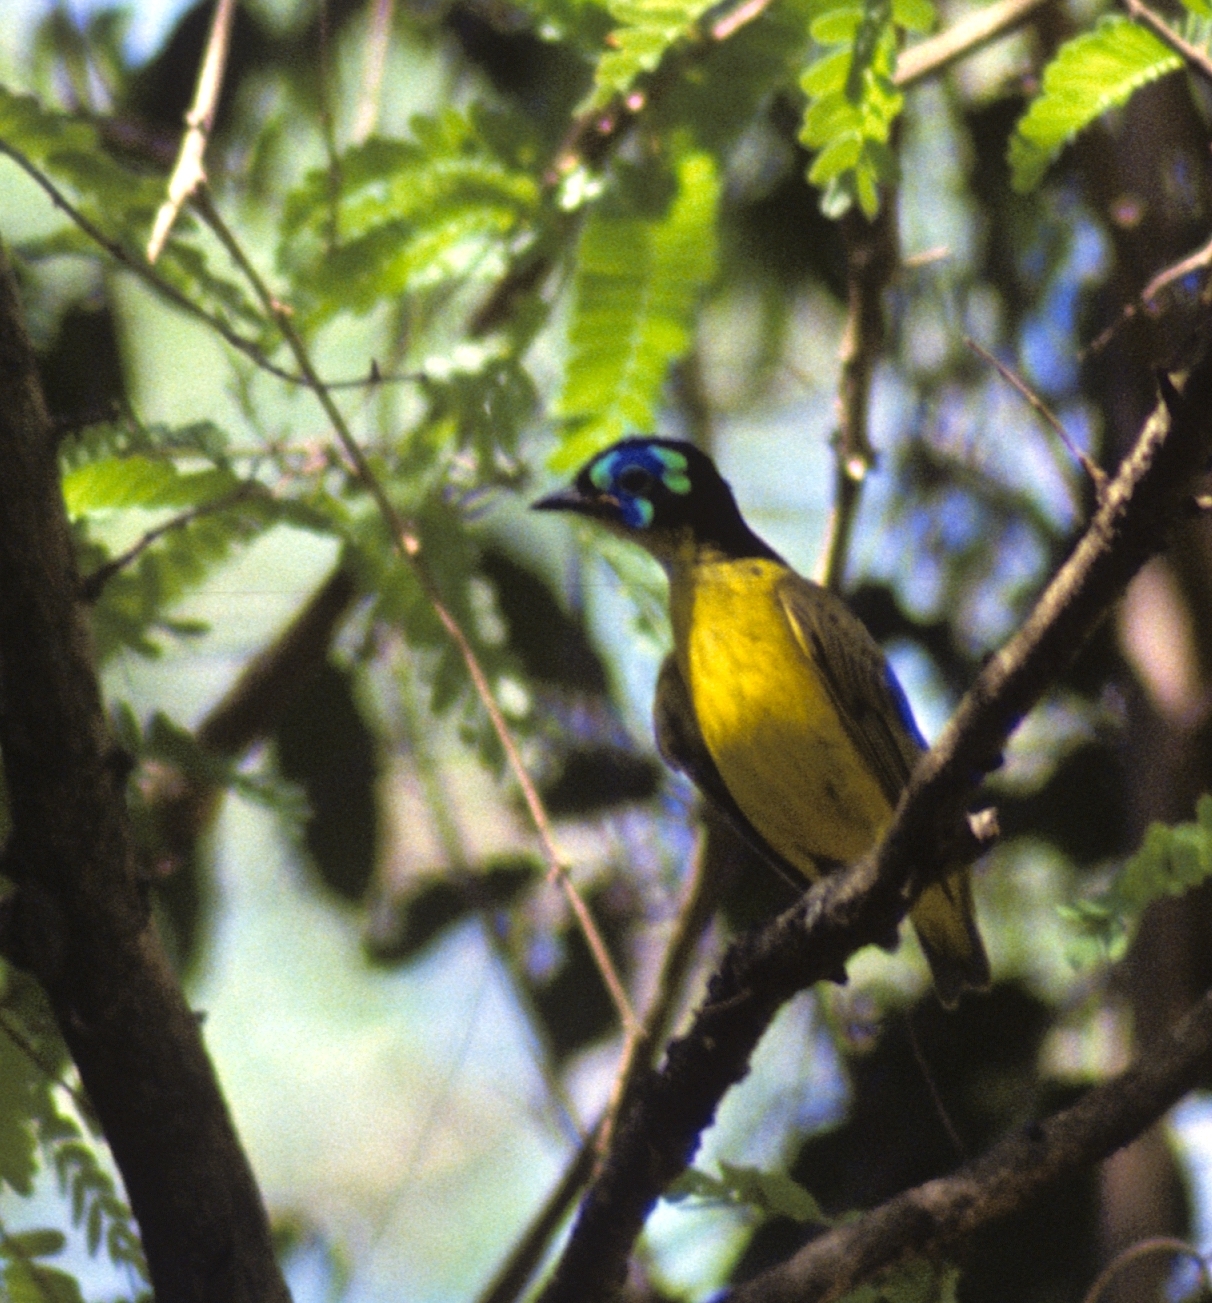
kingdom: Animalia
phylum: Chordata
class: Aves
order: Passeriformes
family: Philepittidae
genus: Philepitta
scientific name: Philepitta schlegeli
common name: Schlegel's asity
